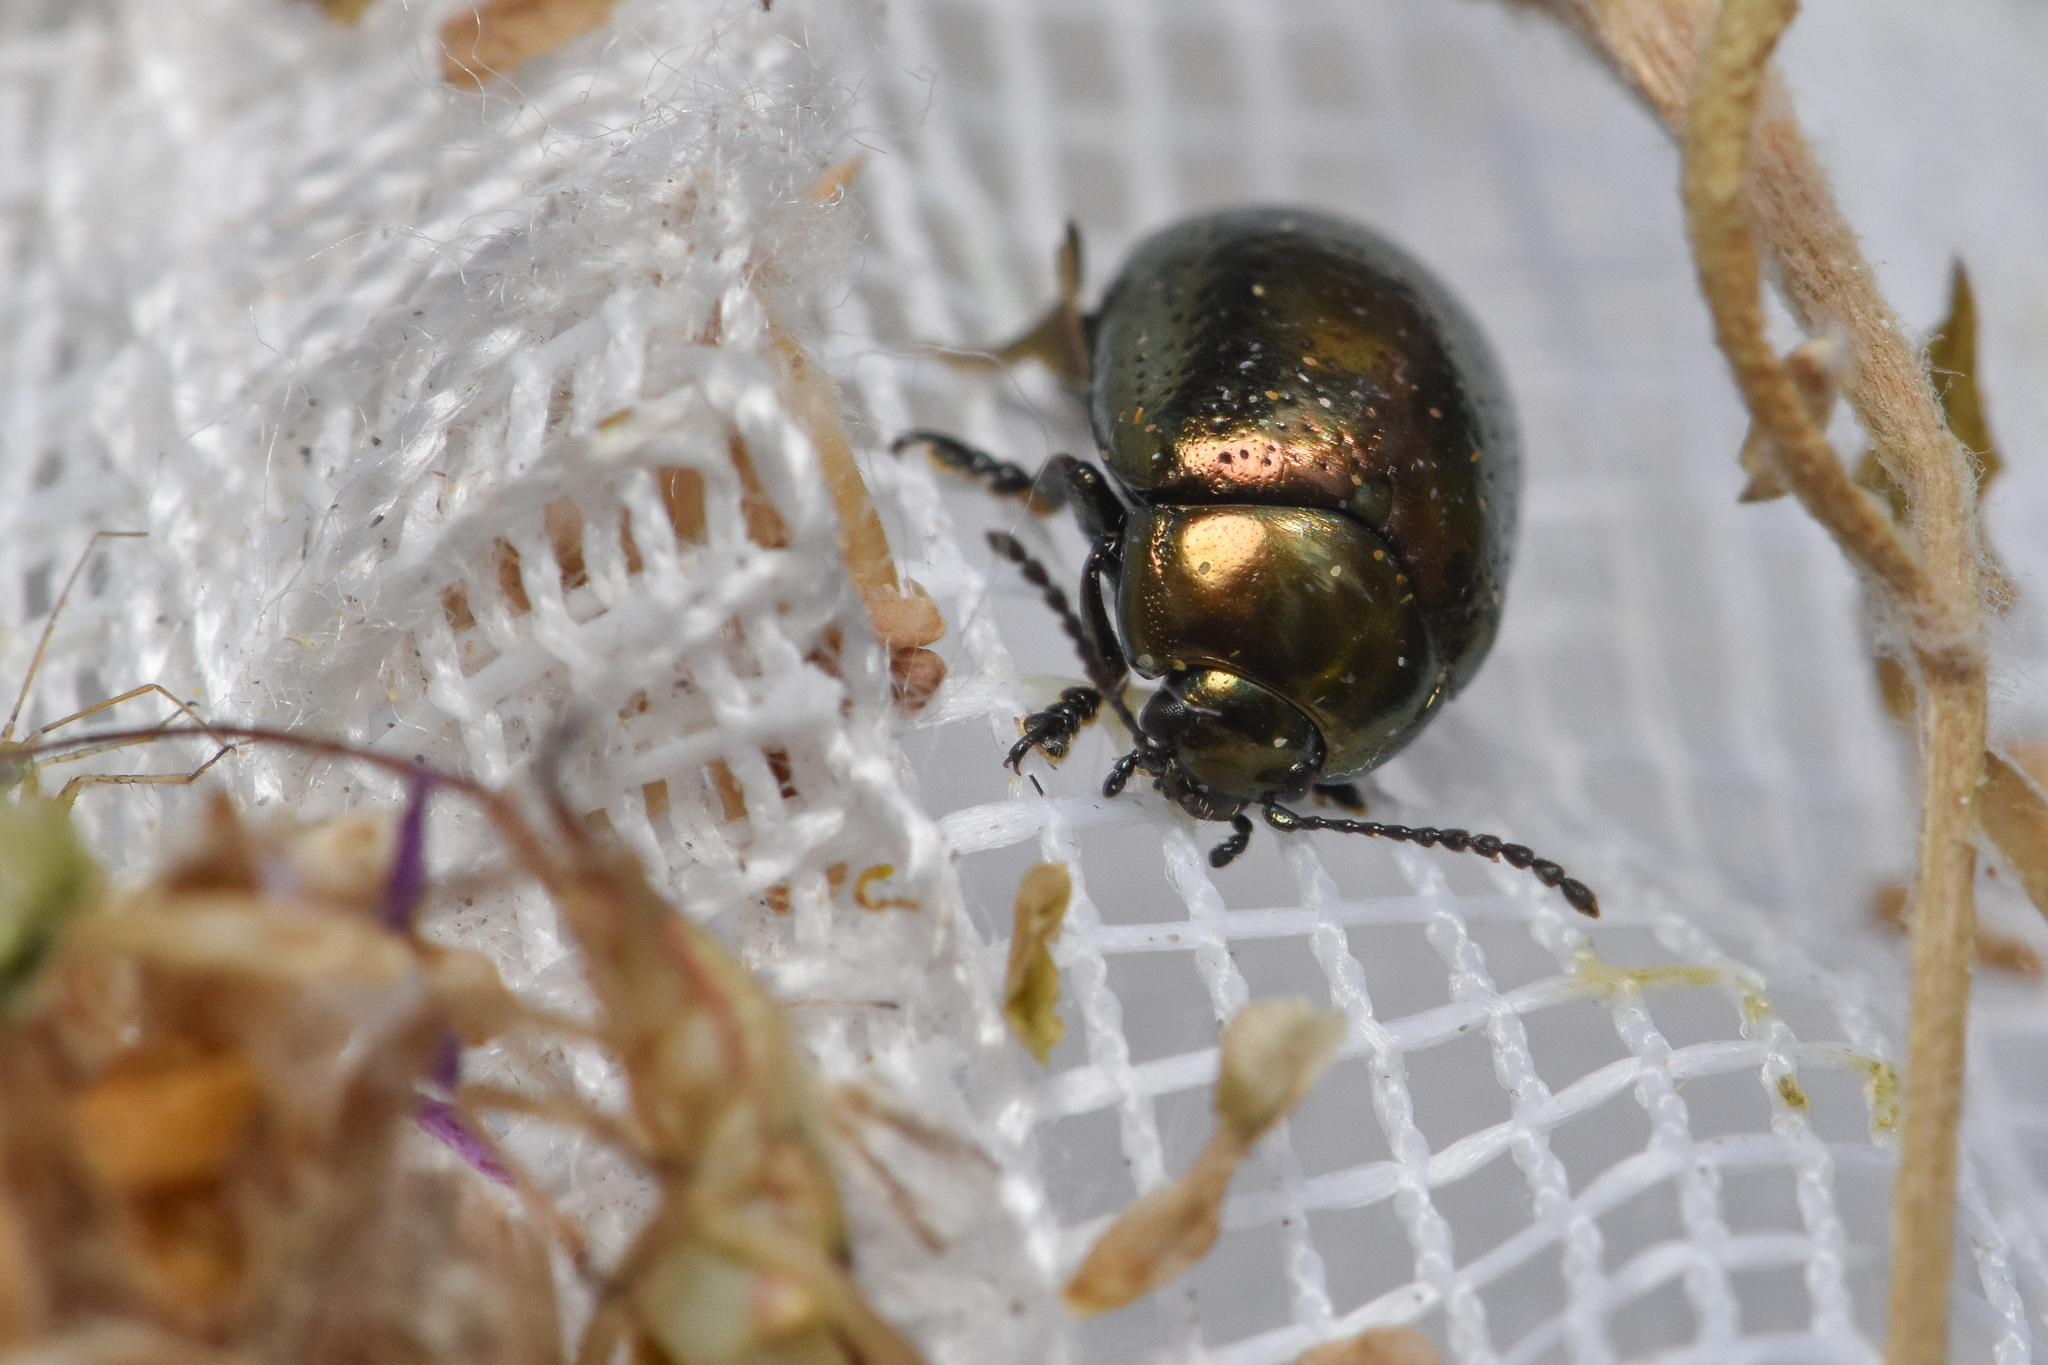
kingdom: Animalia
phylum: Arthropoda
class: Insecta
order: Coleoptera
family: Chrysomelidae
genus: Chrysolina
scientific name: Chrysolina hyperici
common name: St. johnswort beetle
